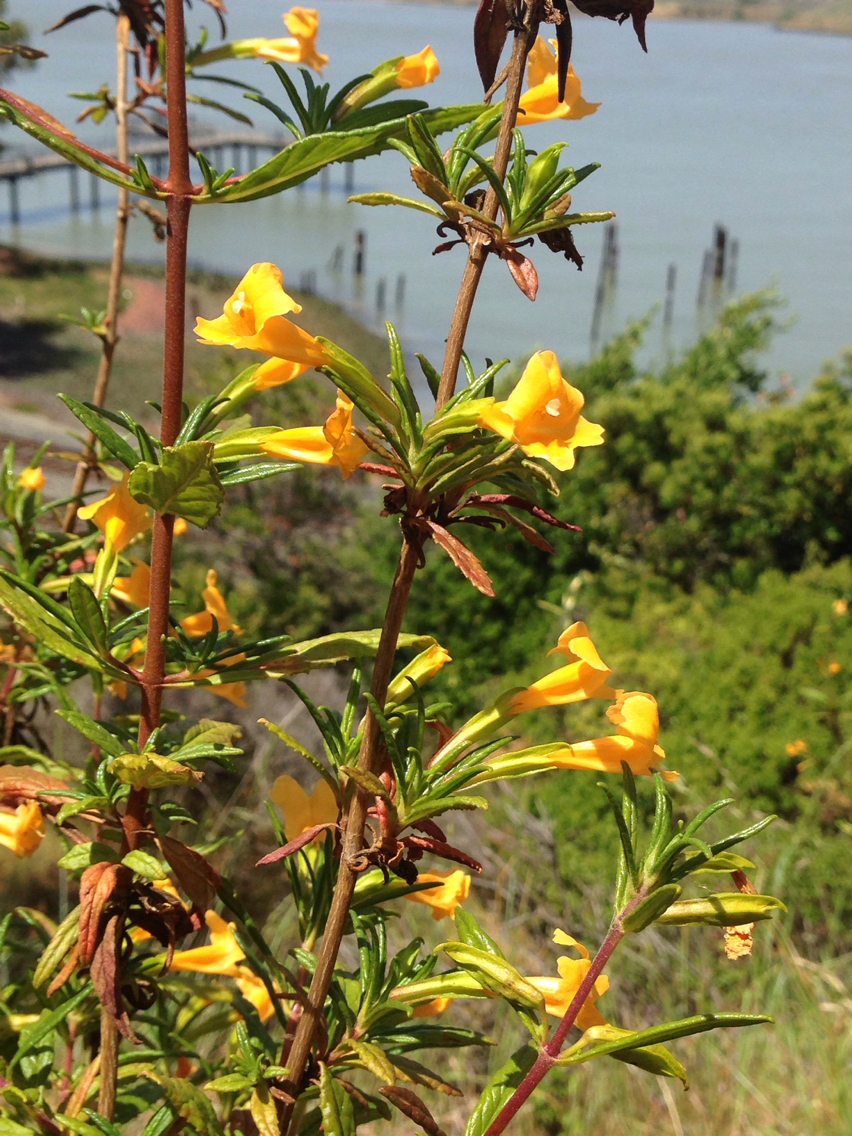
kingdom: Plantae
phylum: Tracheophyta
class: Magnoliopsida
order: Lamiales
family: Phrymaceae
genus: Diplacus
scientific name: Diplacus aurantiacus
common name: Bush monkey-flower
